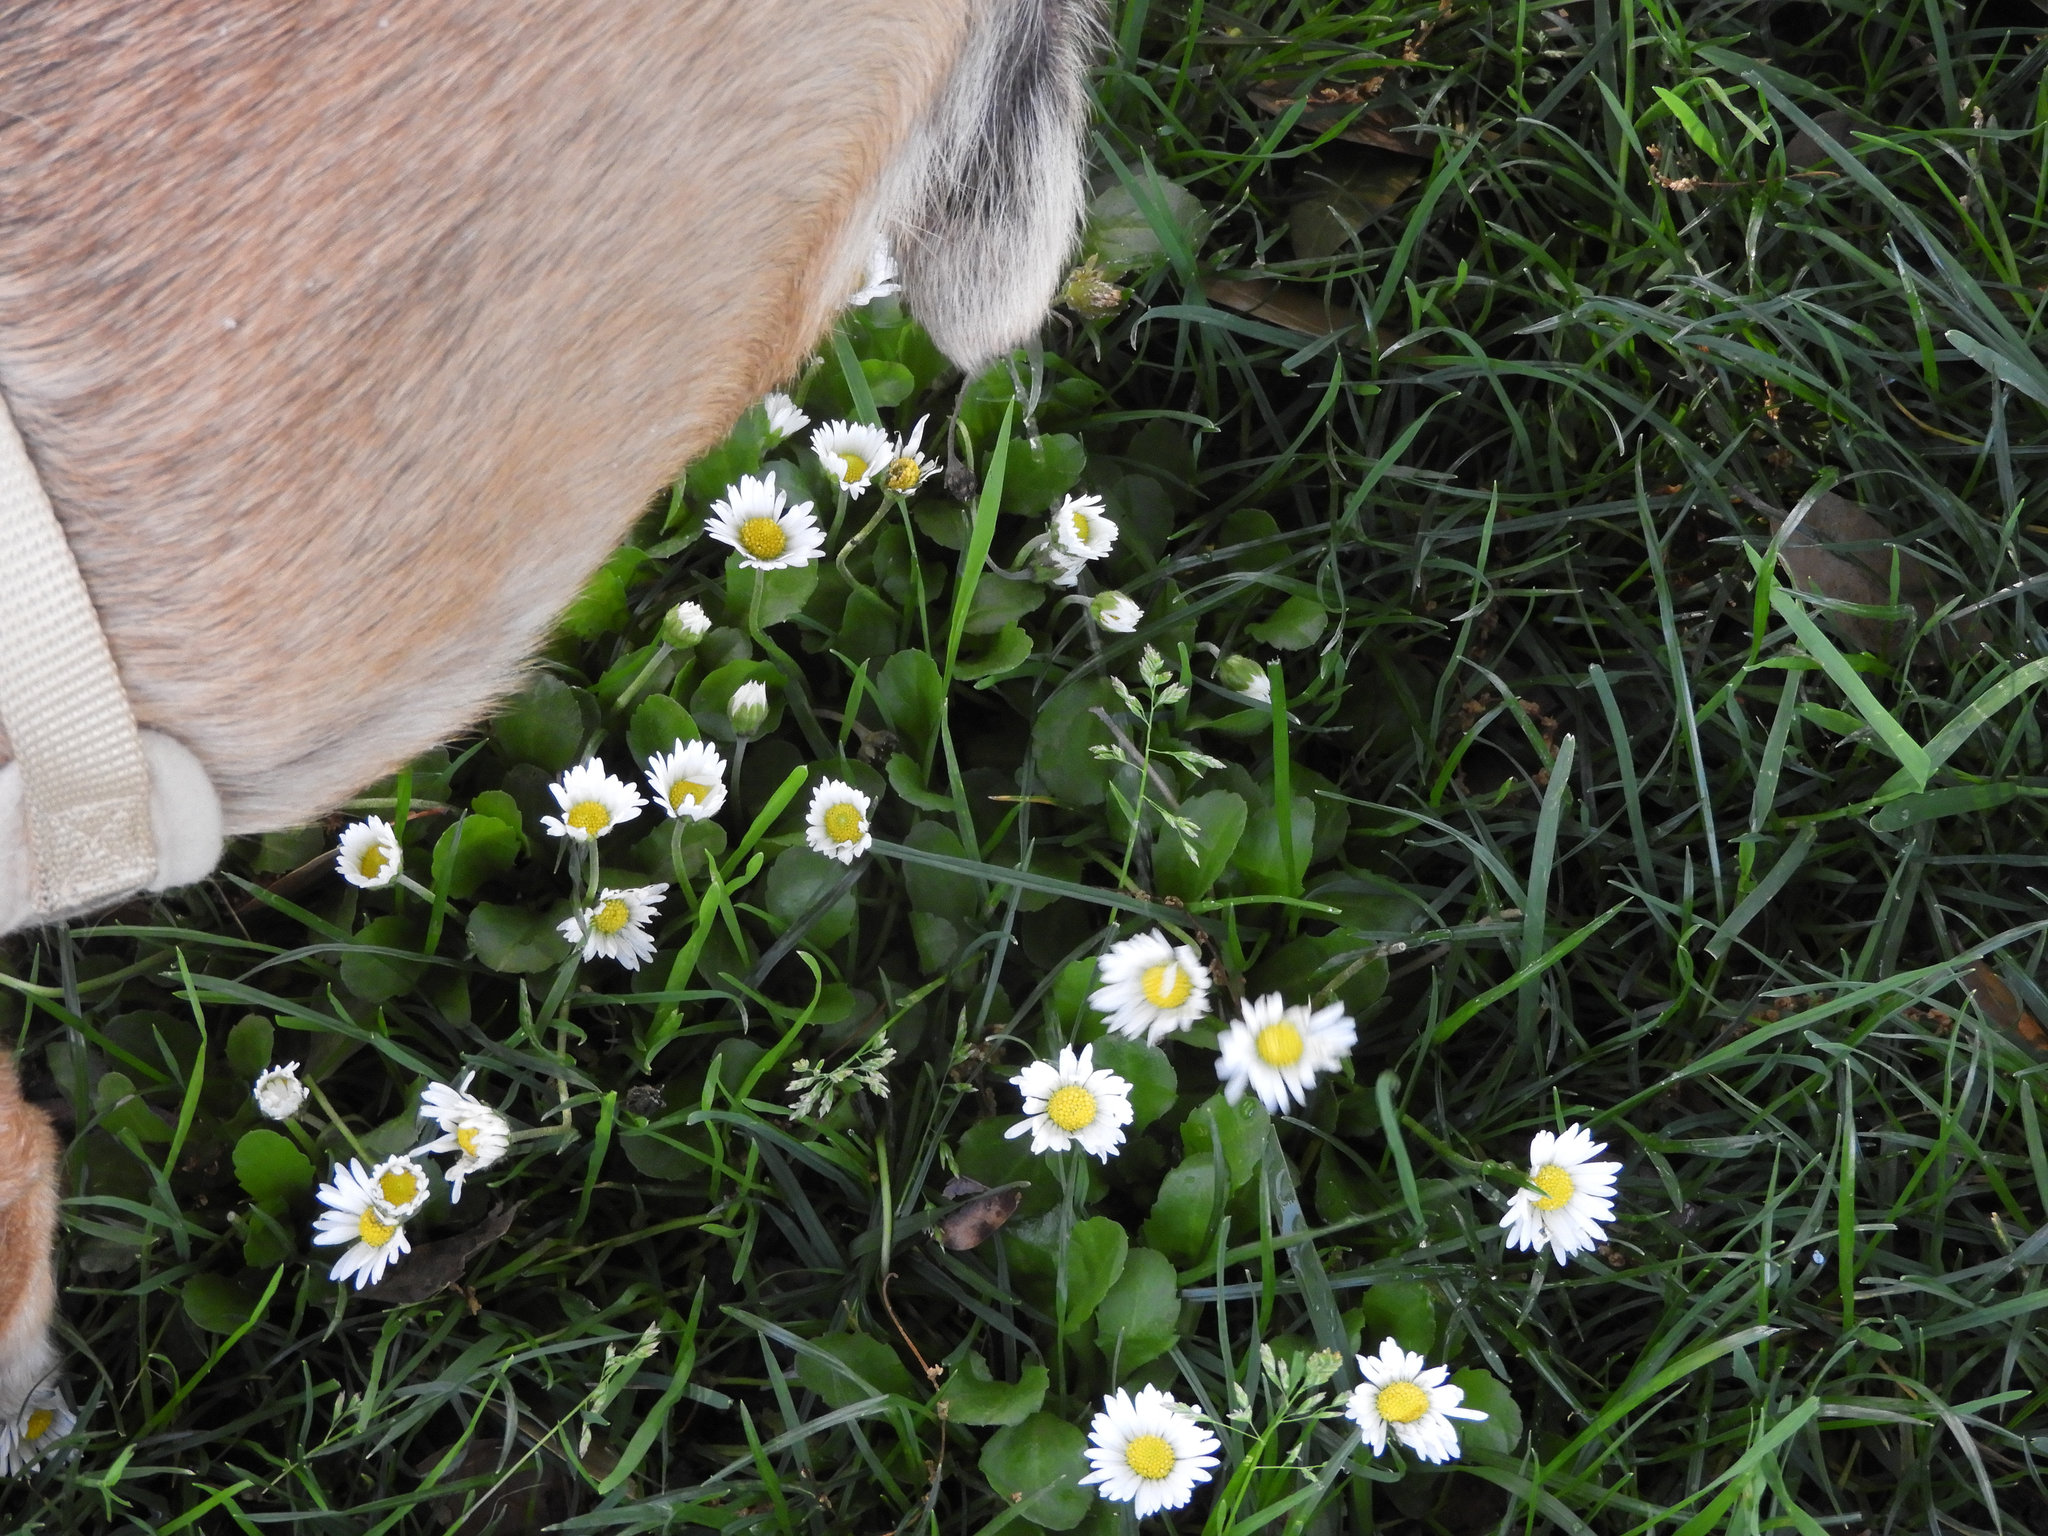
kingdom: Plantae
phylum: Tracheophyta
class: Magnoliopsida
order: Asterales
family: Asteraceae
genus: Bellis
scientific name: Bellis perennis
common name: Lawndaisy
